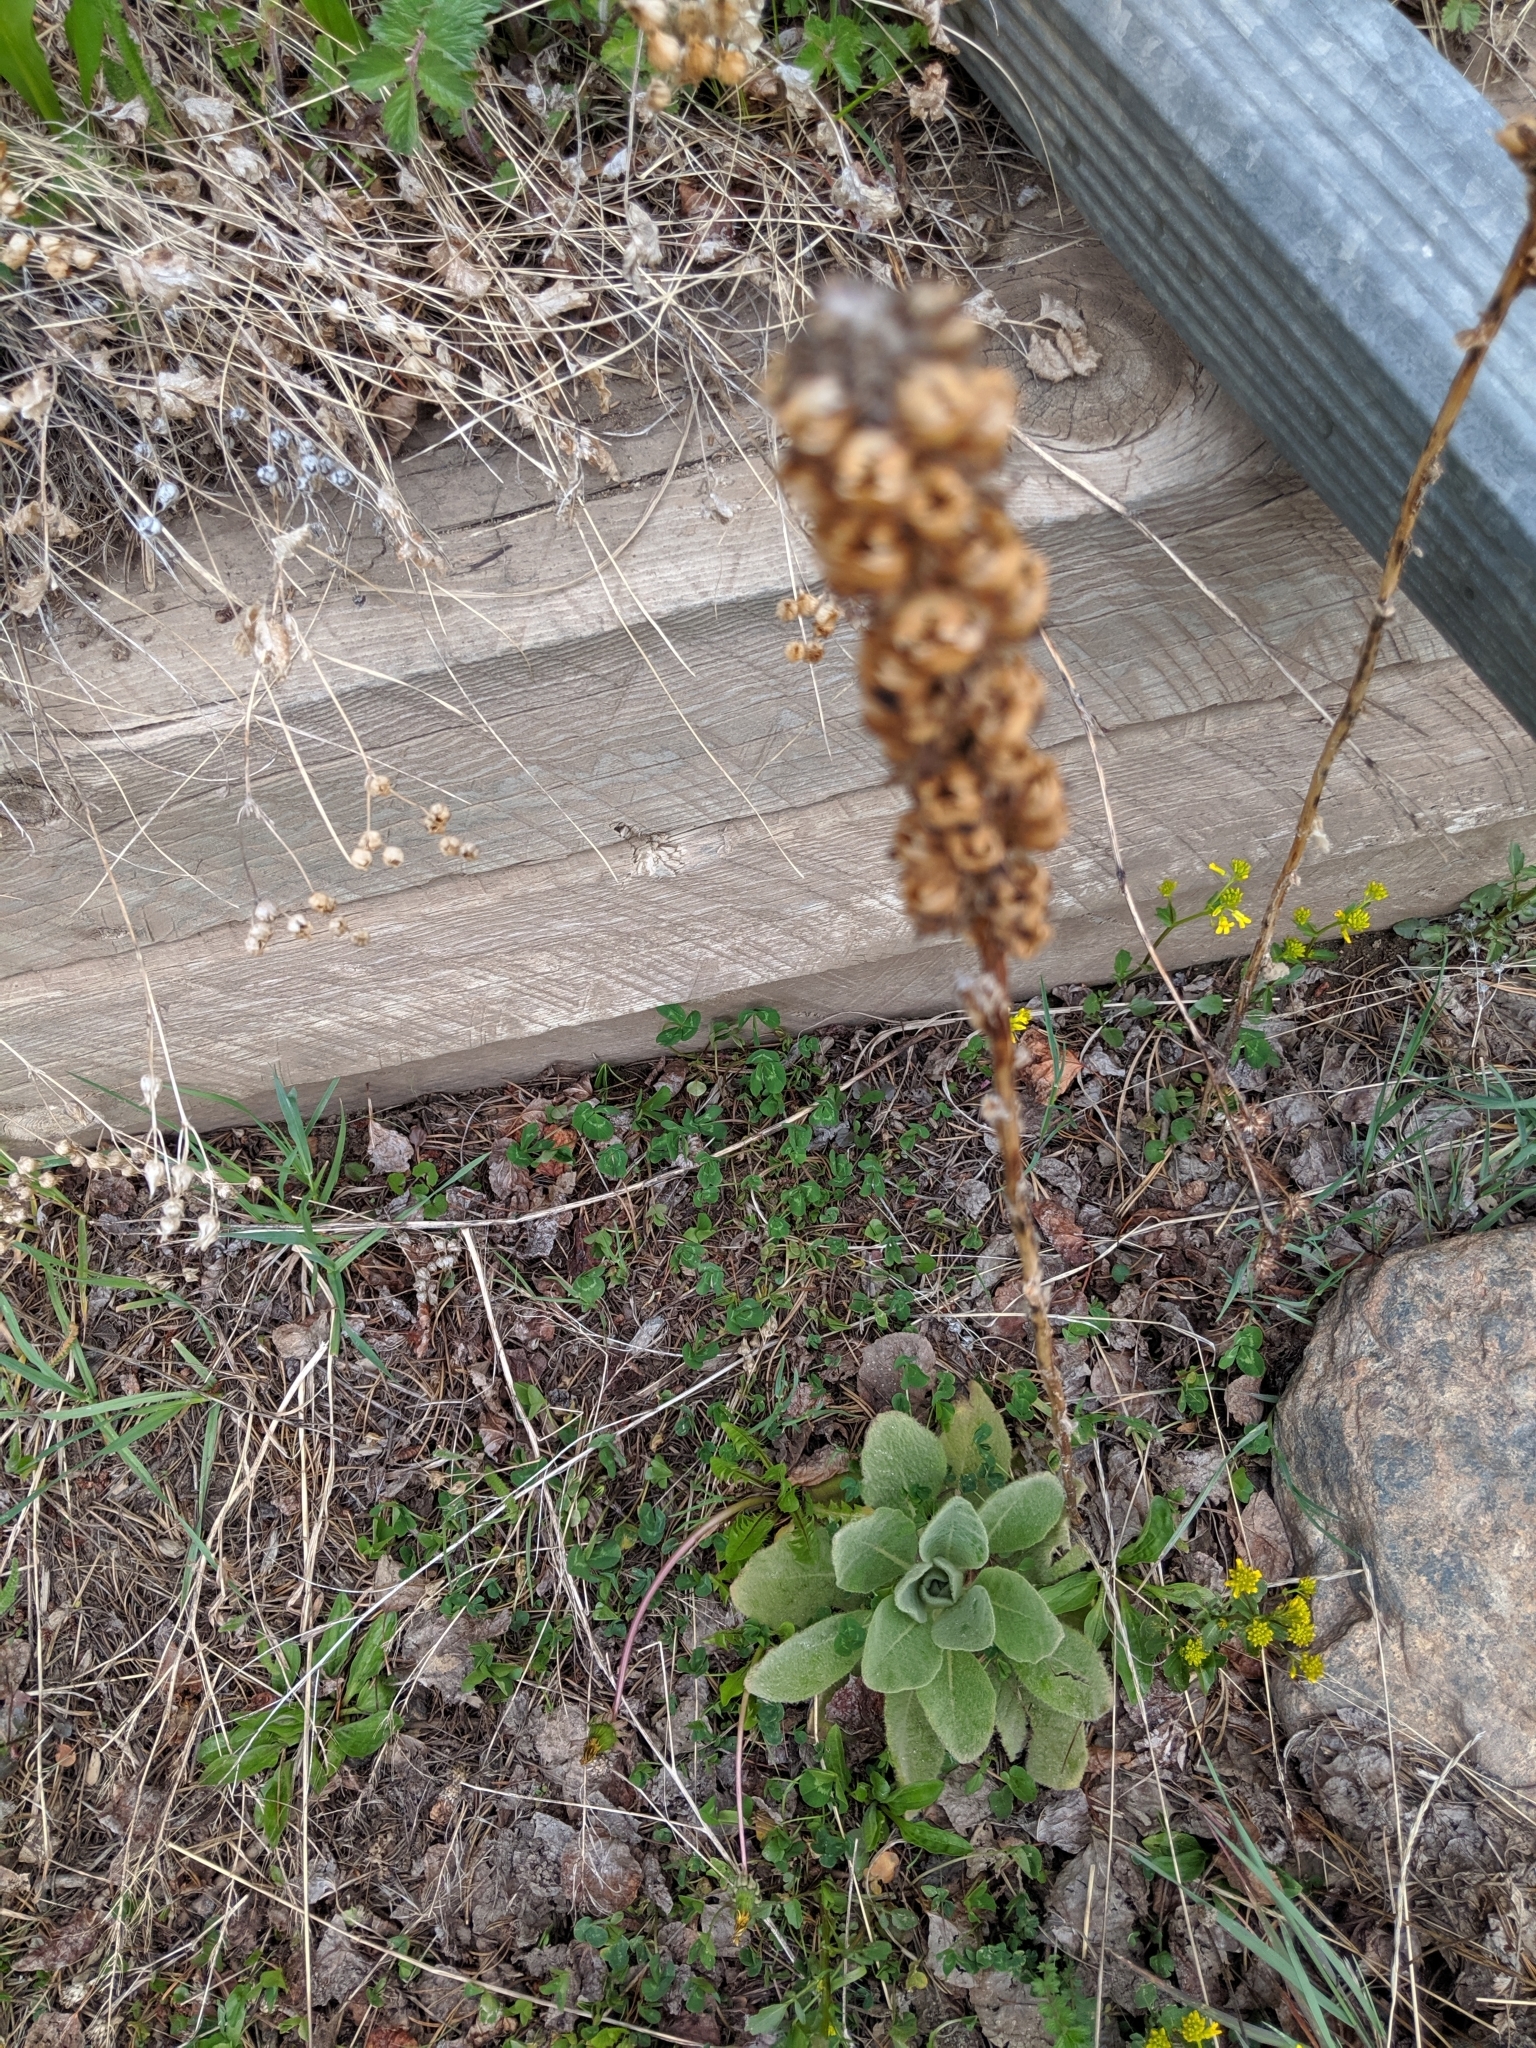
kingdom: Plantae
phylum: Tracheophyta
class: Magnoliopsida
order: Lamiales
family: Scrophulariaceae
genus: Verbascum
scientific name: Verbascum thapsus
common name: Common mullein
